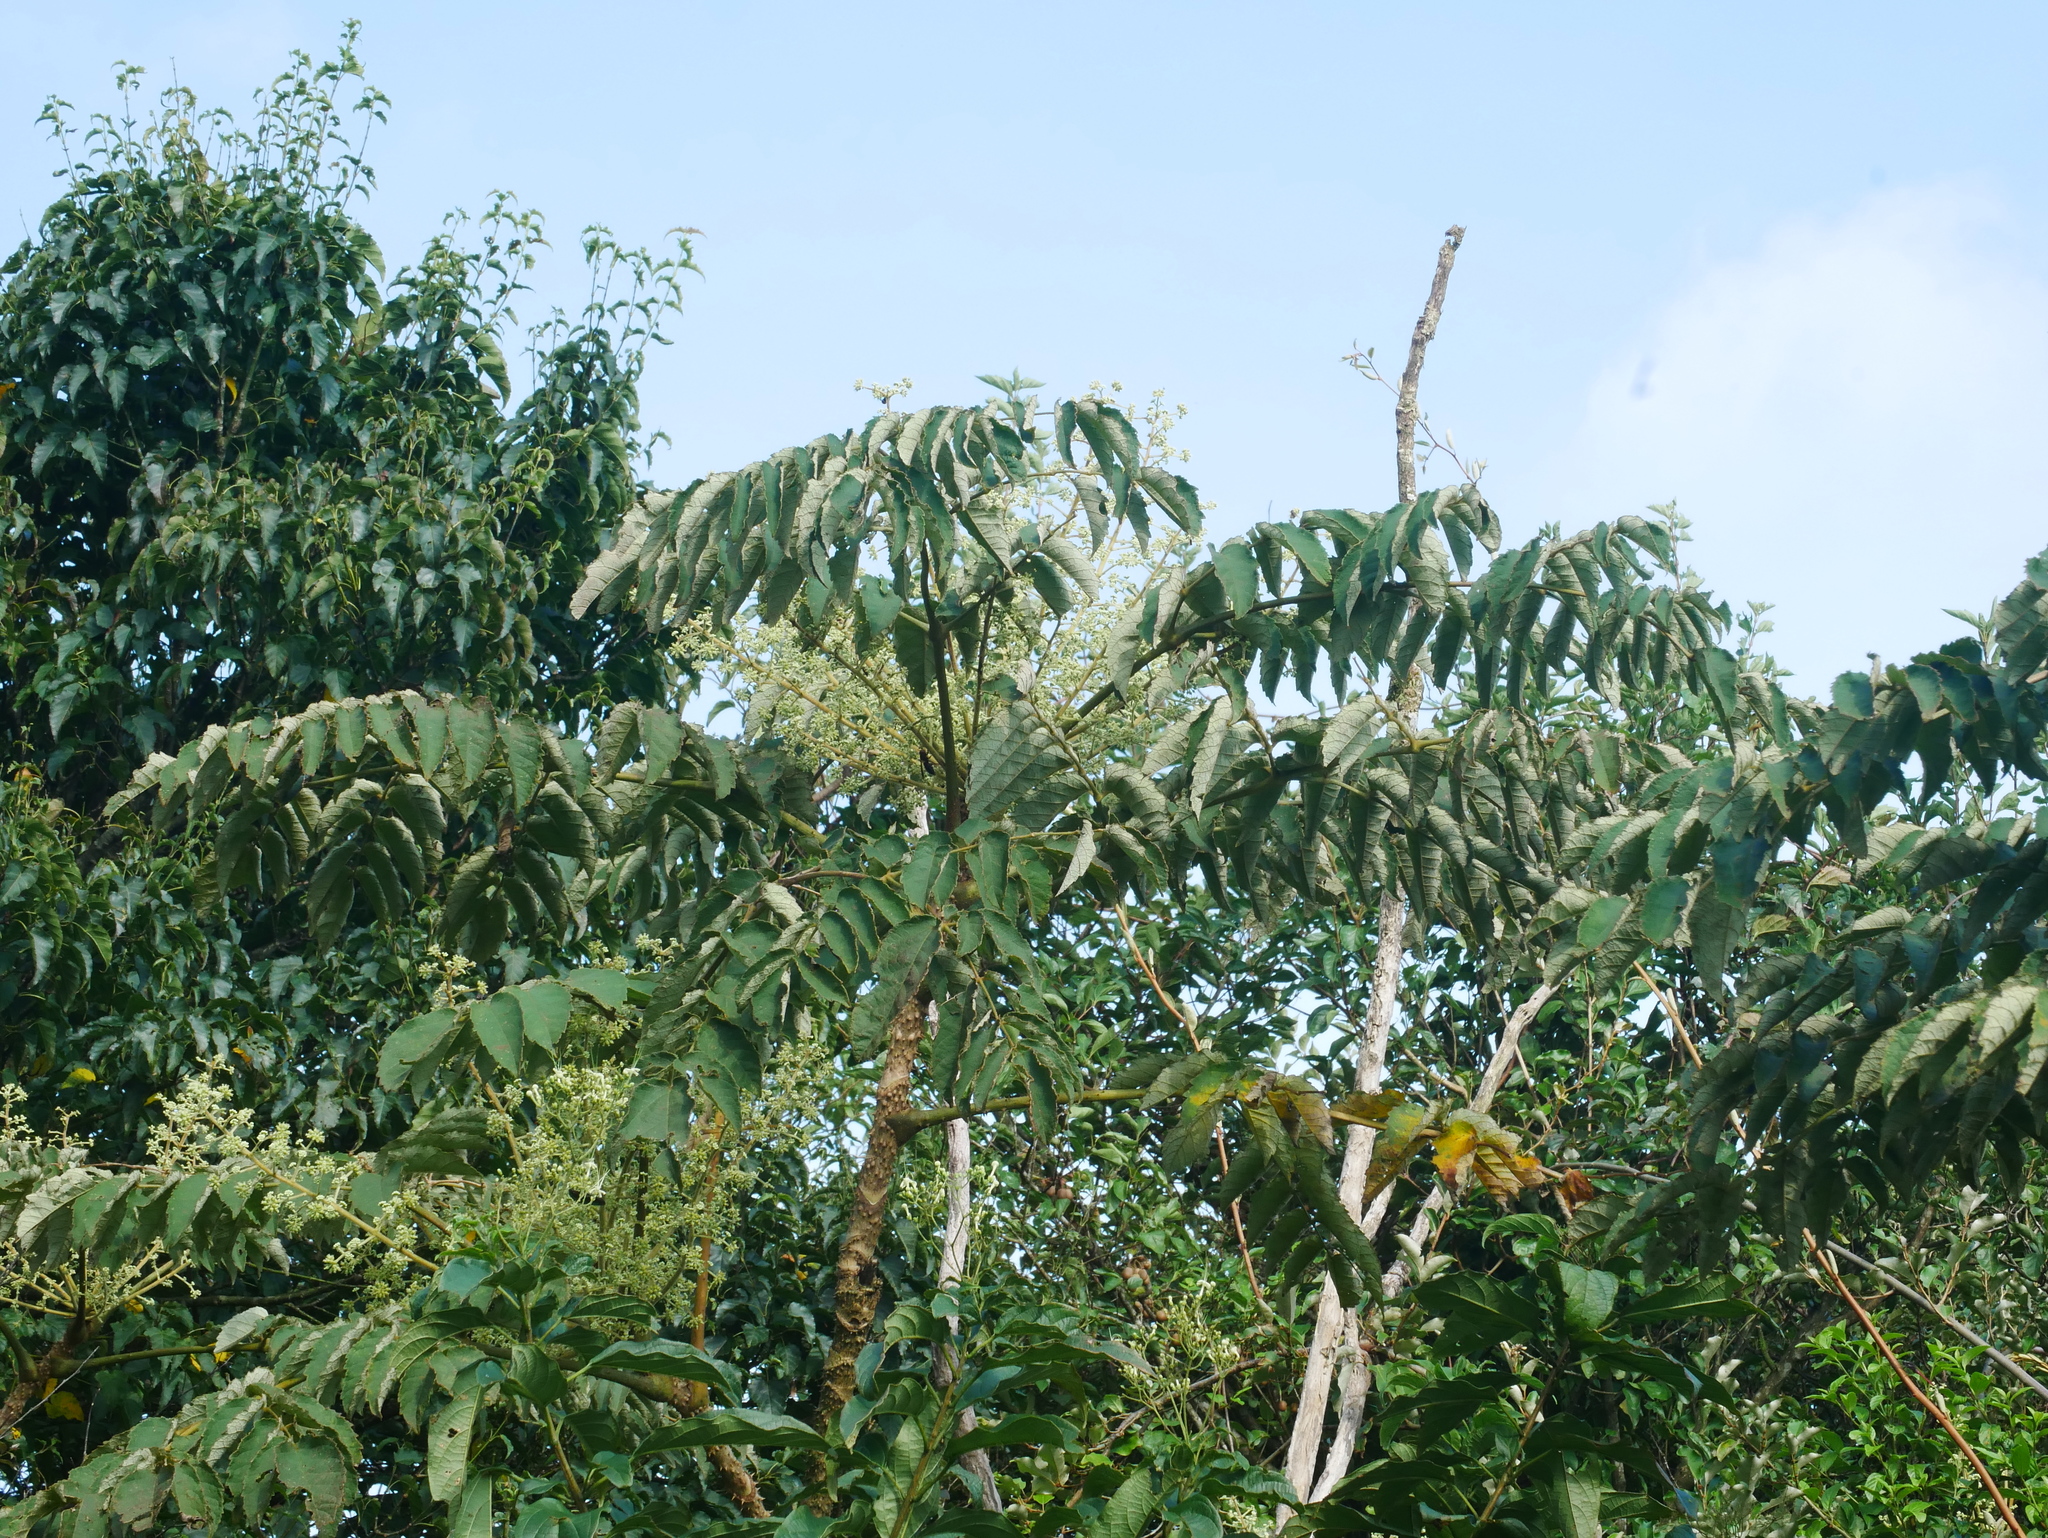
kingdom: Plantae
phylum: Tracheophyta
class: Magnoliopsida
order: Apiales
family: Araliaceae
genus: Aralia
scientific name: Aralia decaisneana
